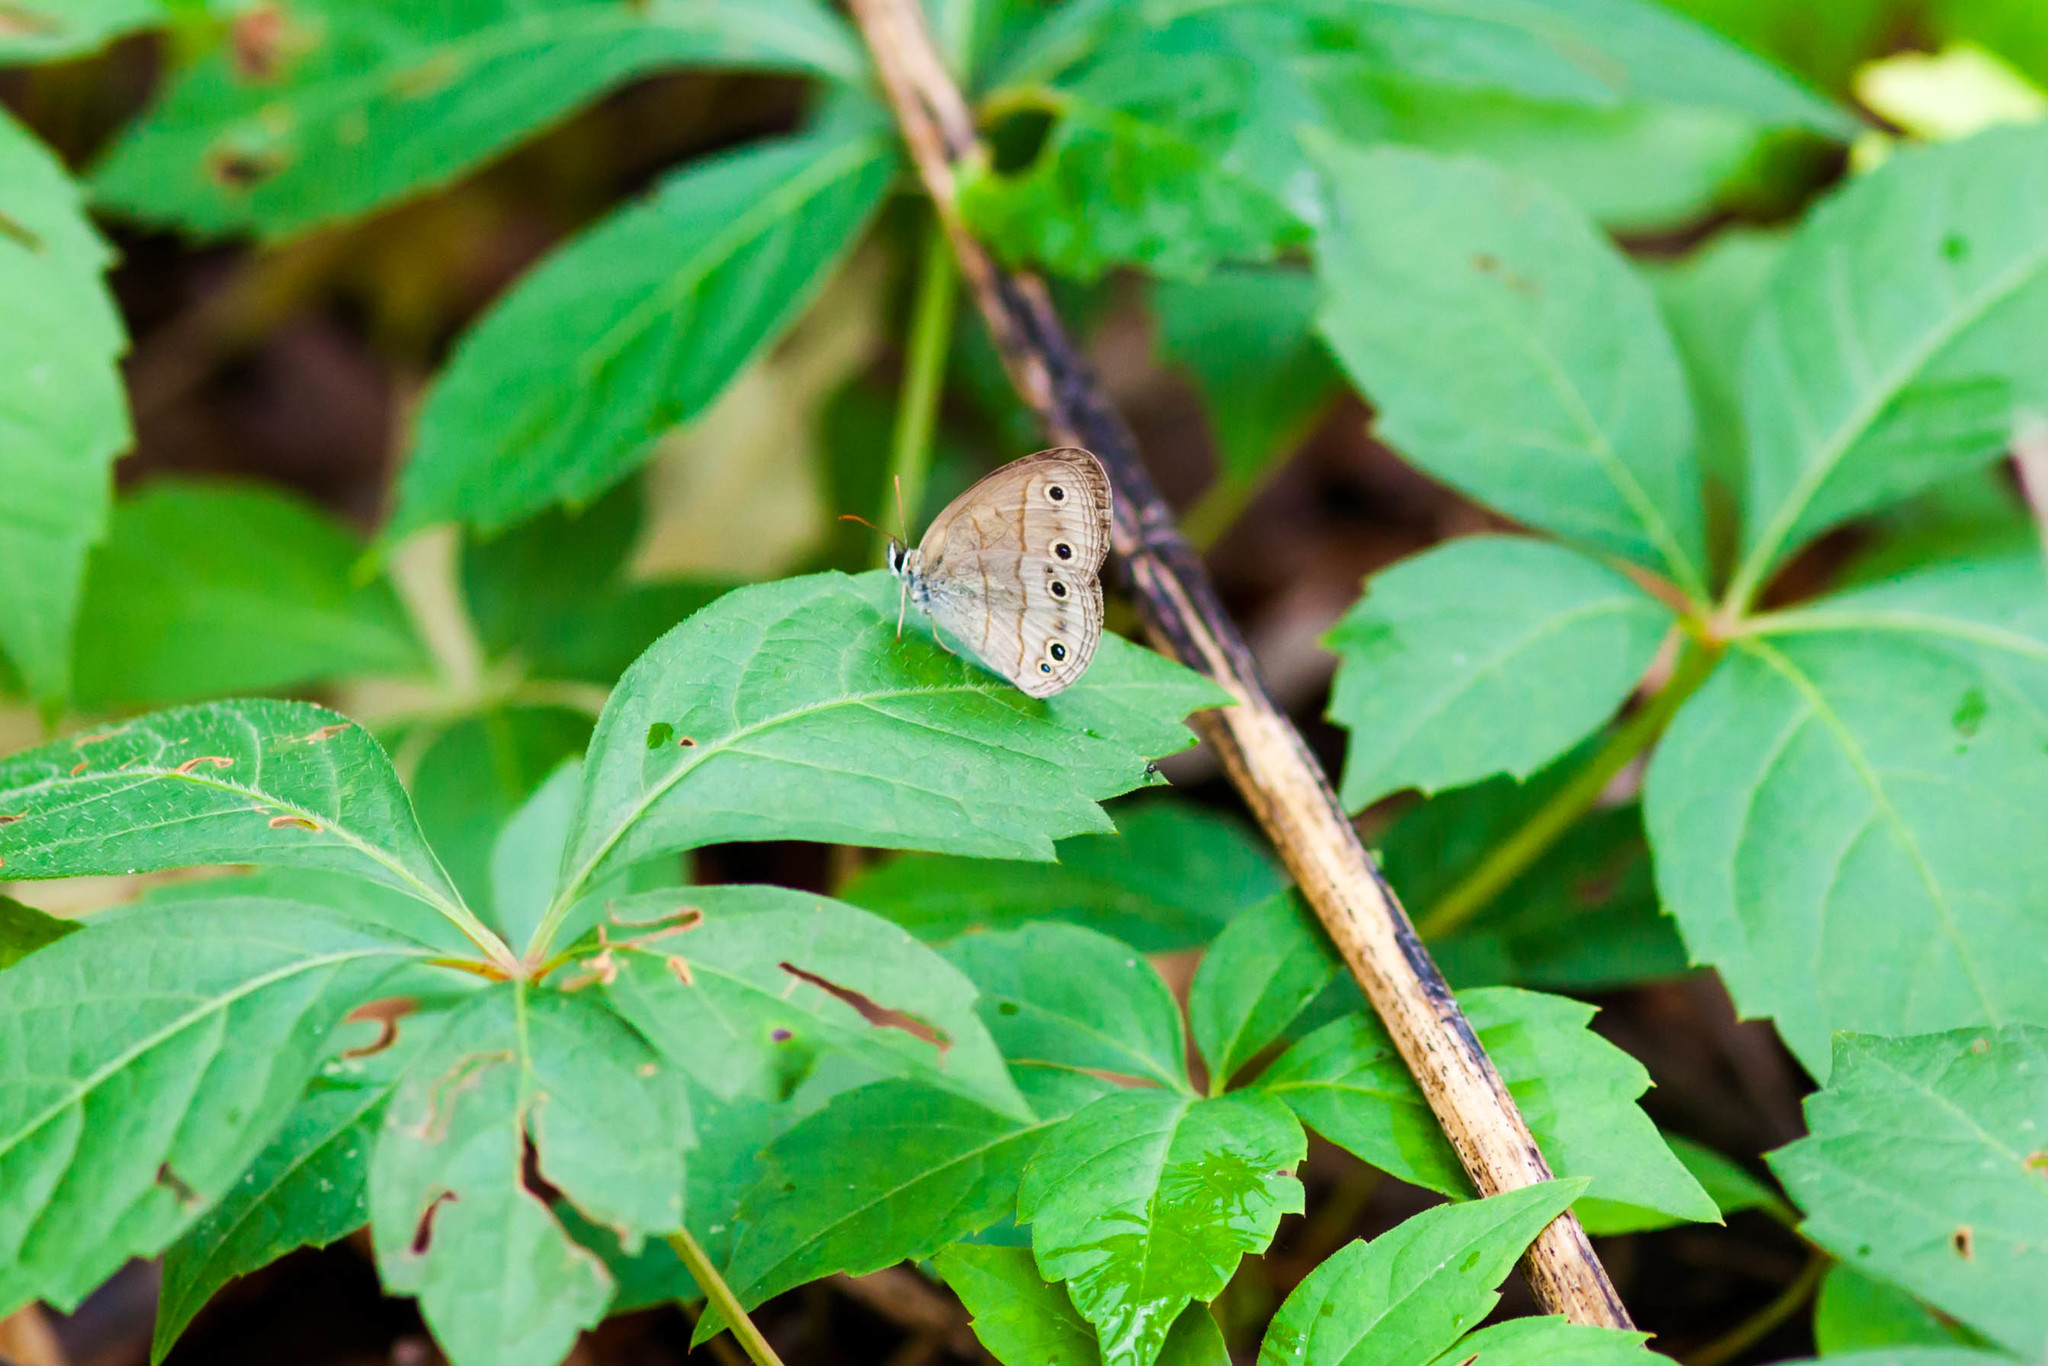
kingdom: Animalia
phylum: Arthropoda
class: Insecta
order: Lepidoptera
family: Nymphalidae
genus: Euptychia
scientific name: Euptychia cymela
